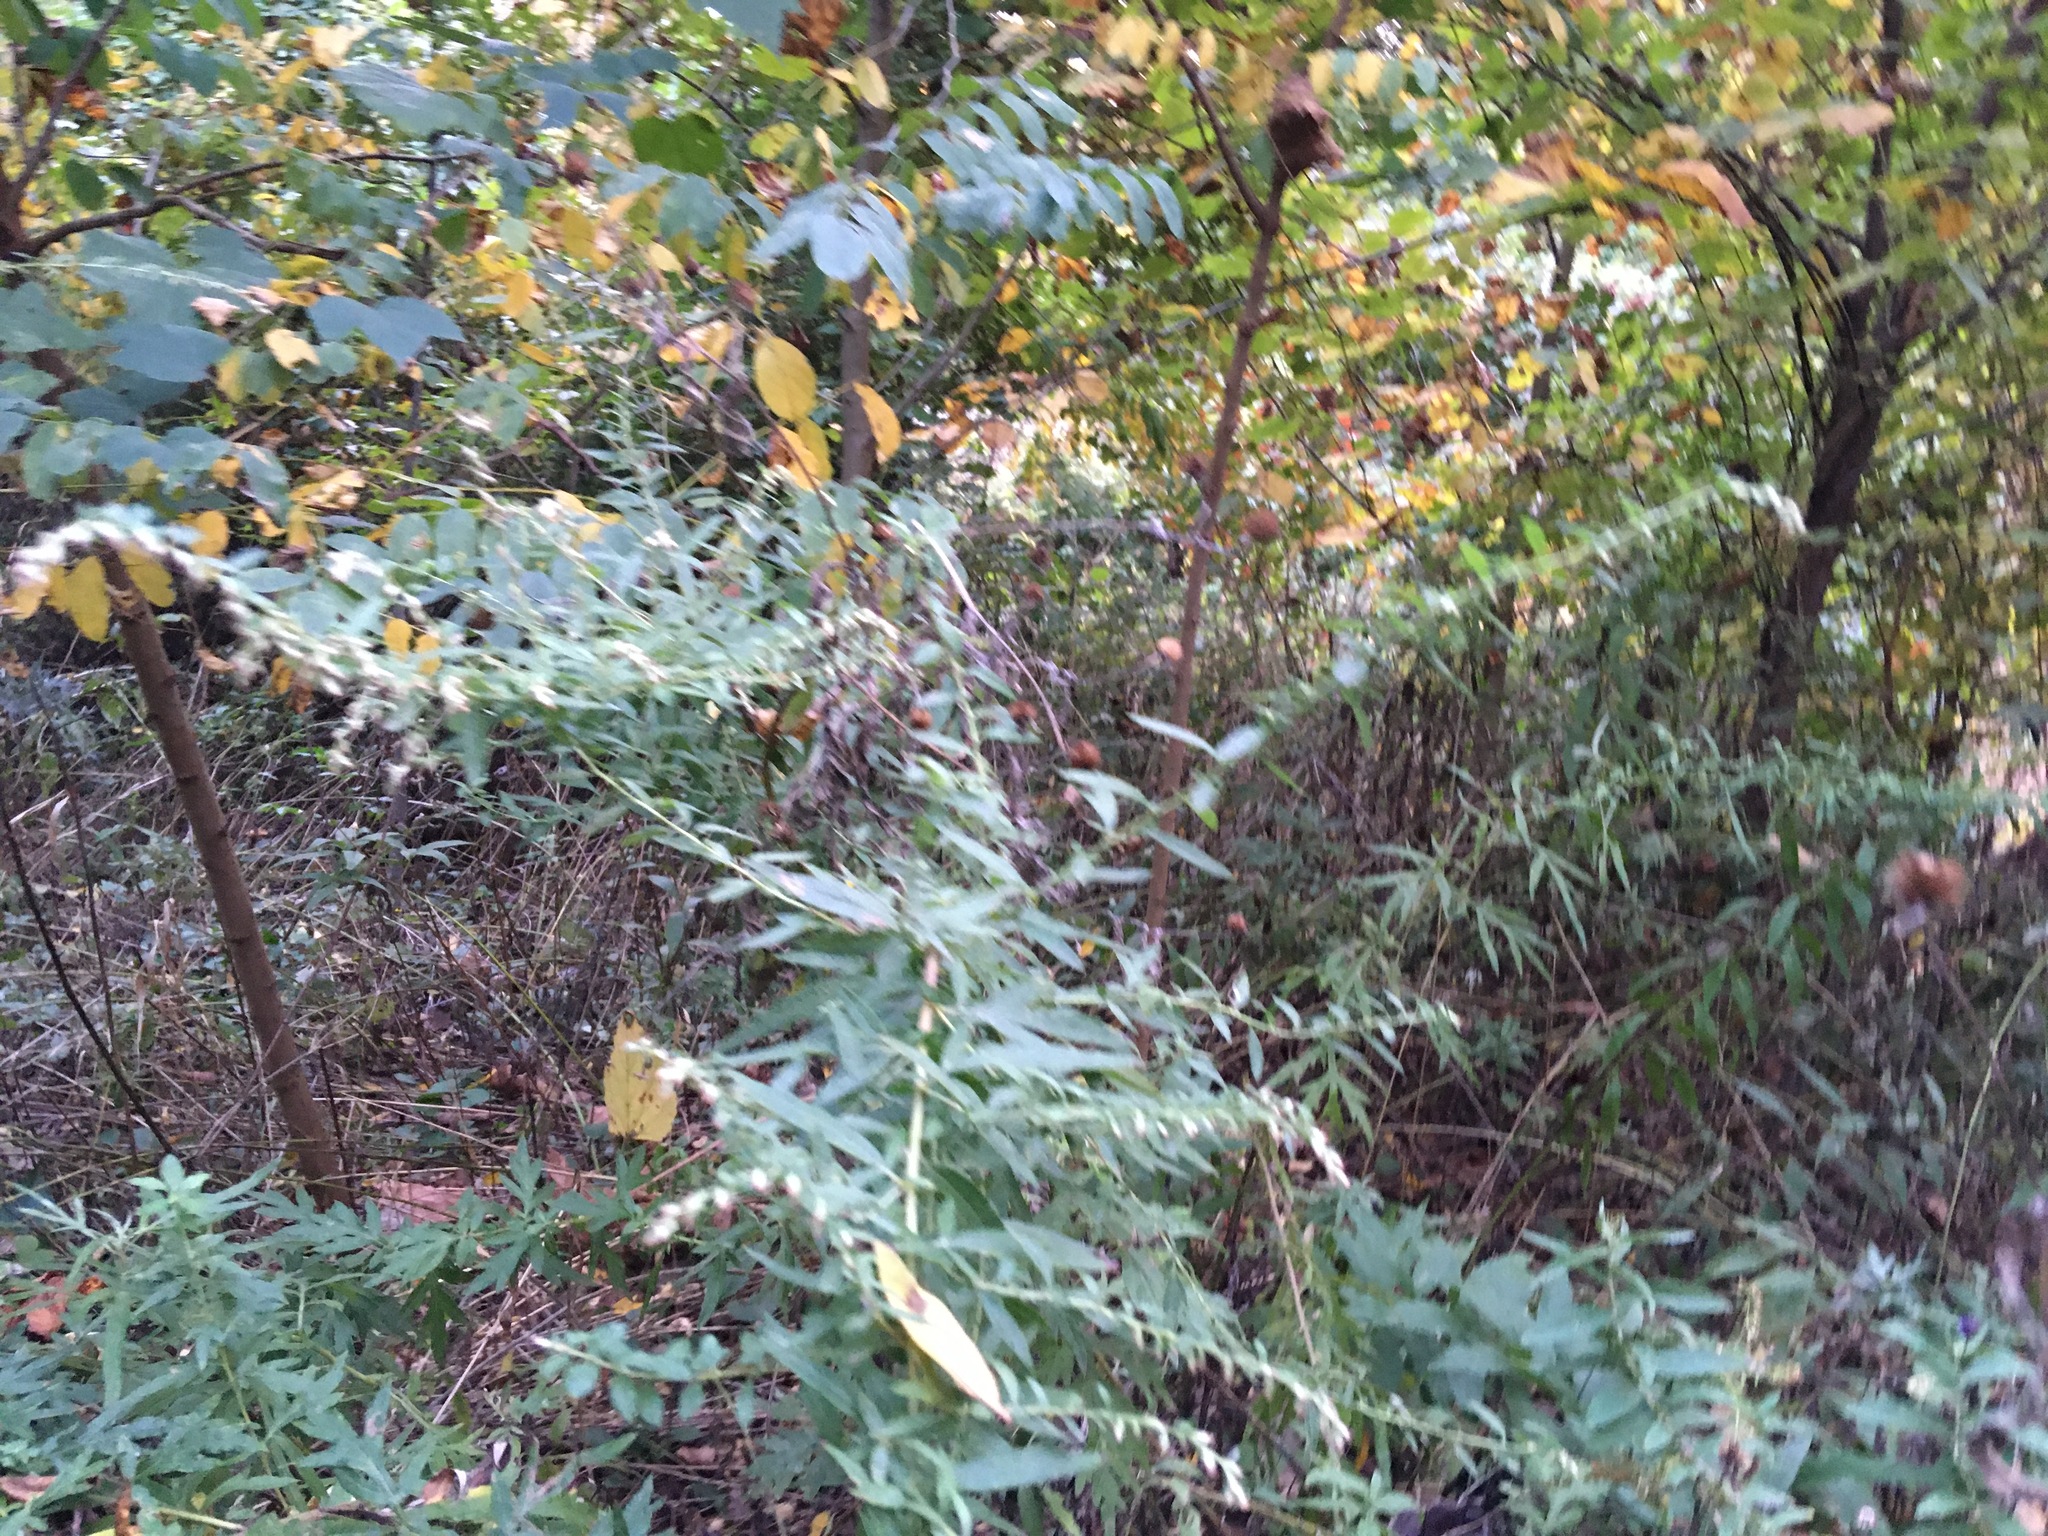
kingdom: Plantae
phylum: Tracheophyta
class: Magnoliopsida
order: Asterales
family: Asteraceae
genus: Artemisia
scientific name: Artemisia vulgaris
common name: Mugwort
